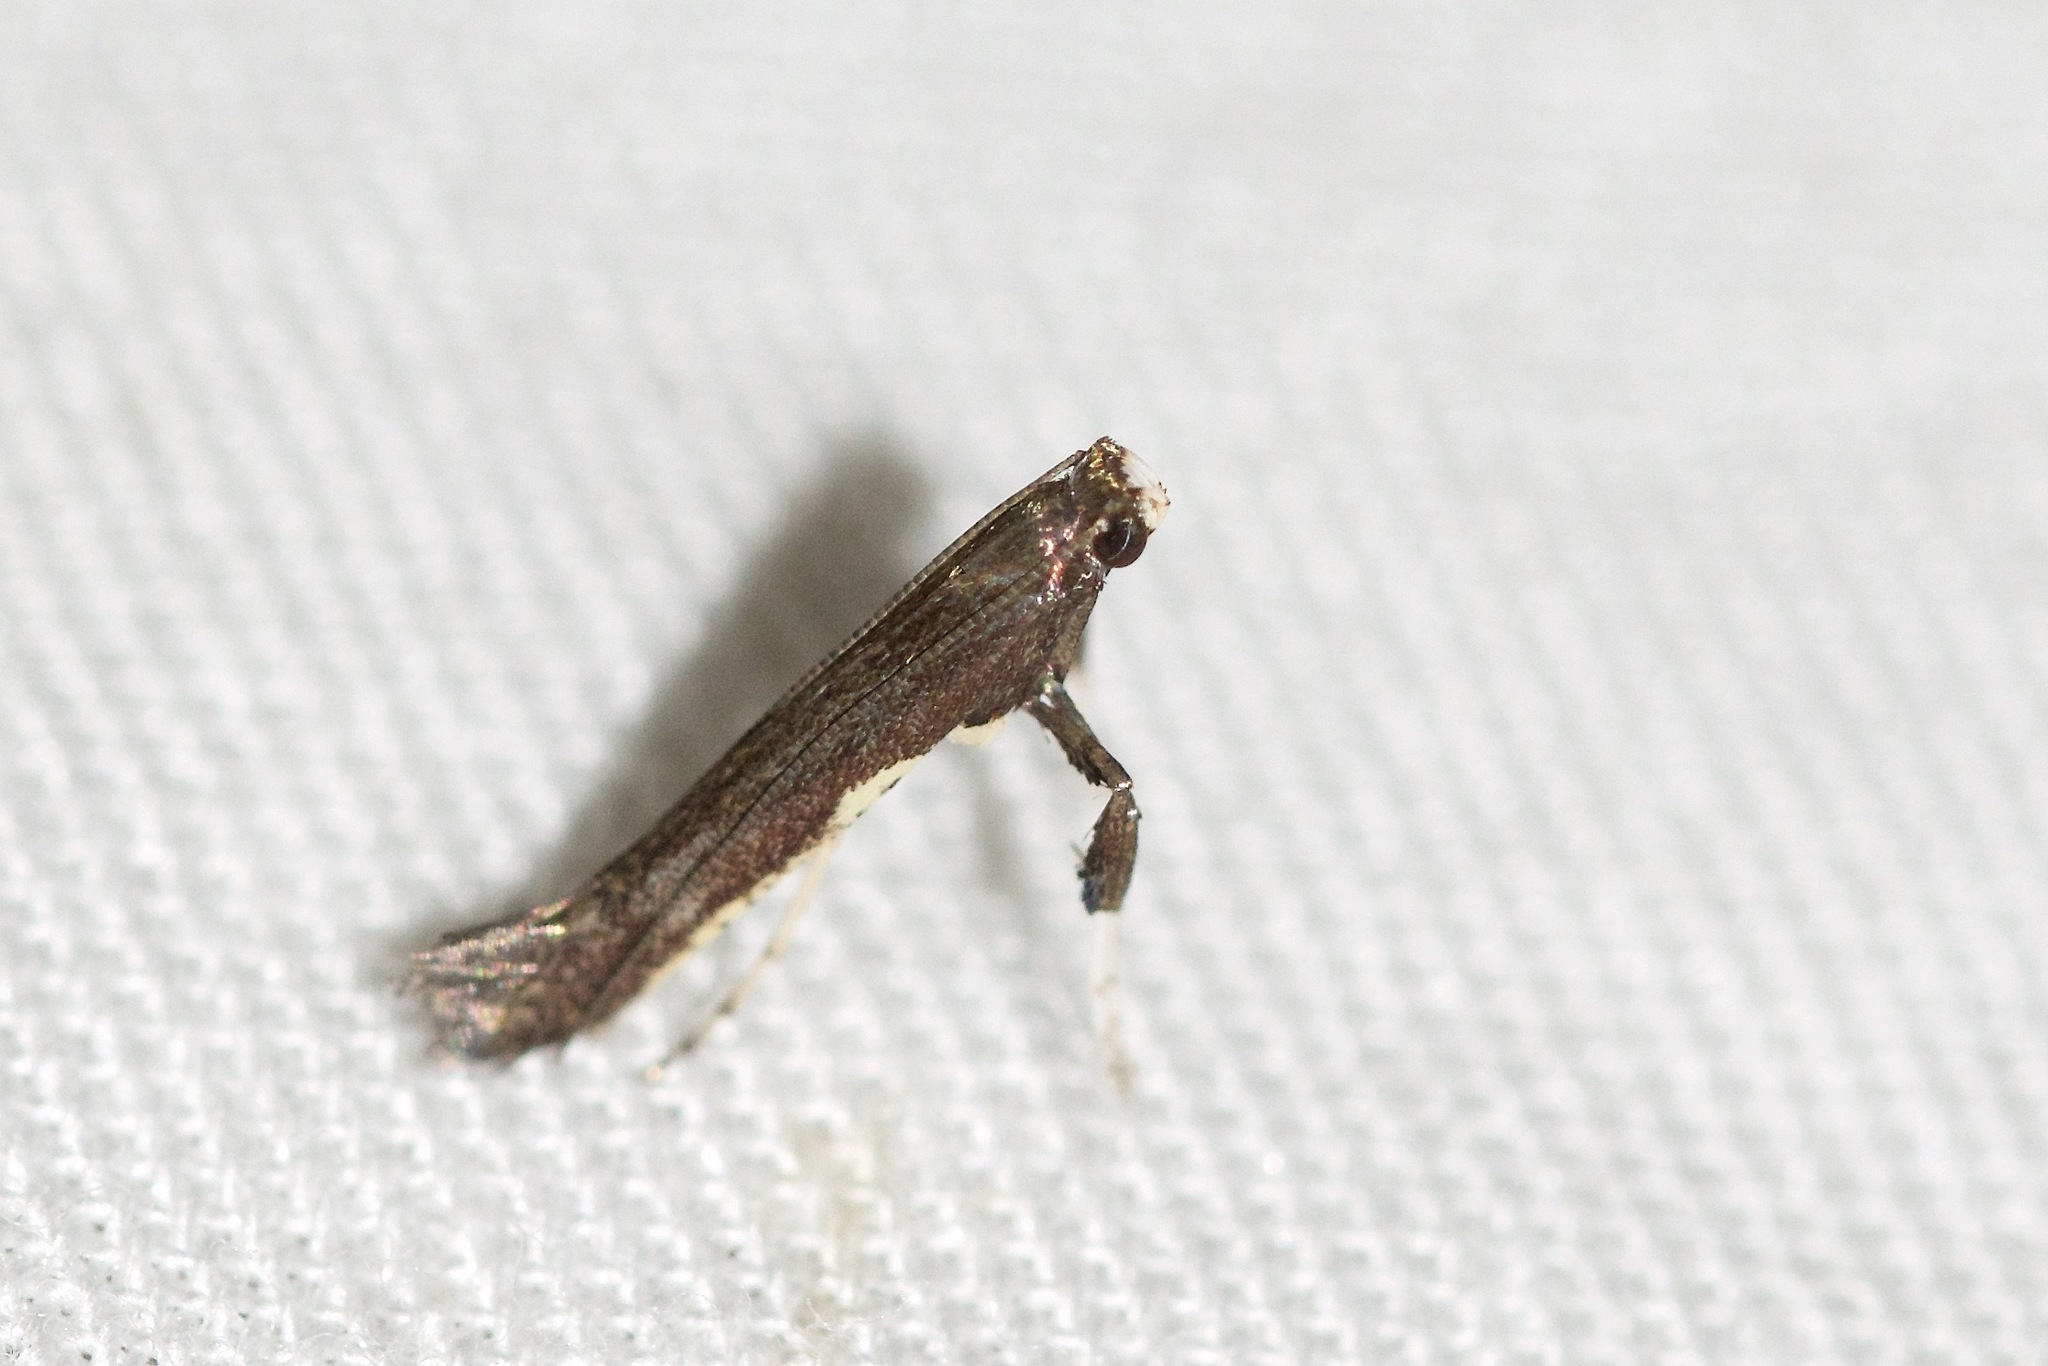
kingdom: Animalia
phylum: Arthropoda
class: Insecta
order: Lepidoptera
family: Gracillariidae
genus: Caloptilia
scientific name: Caloptilia belfragella
